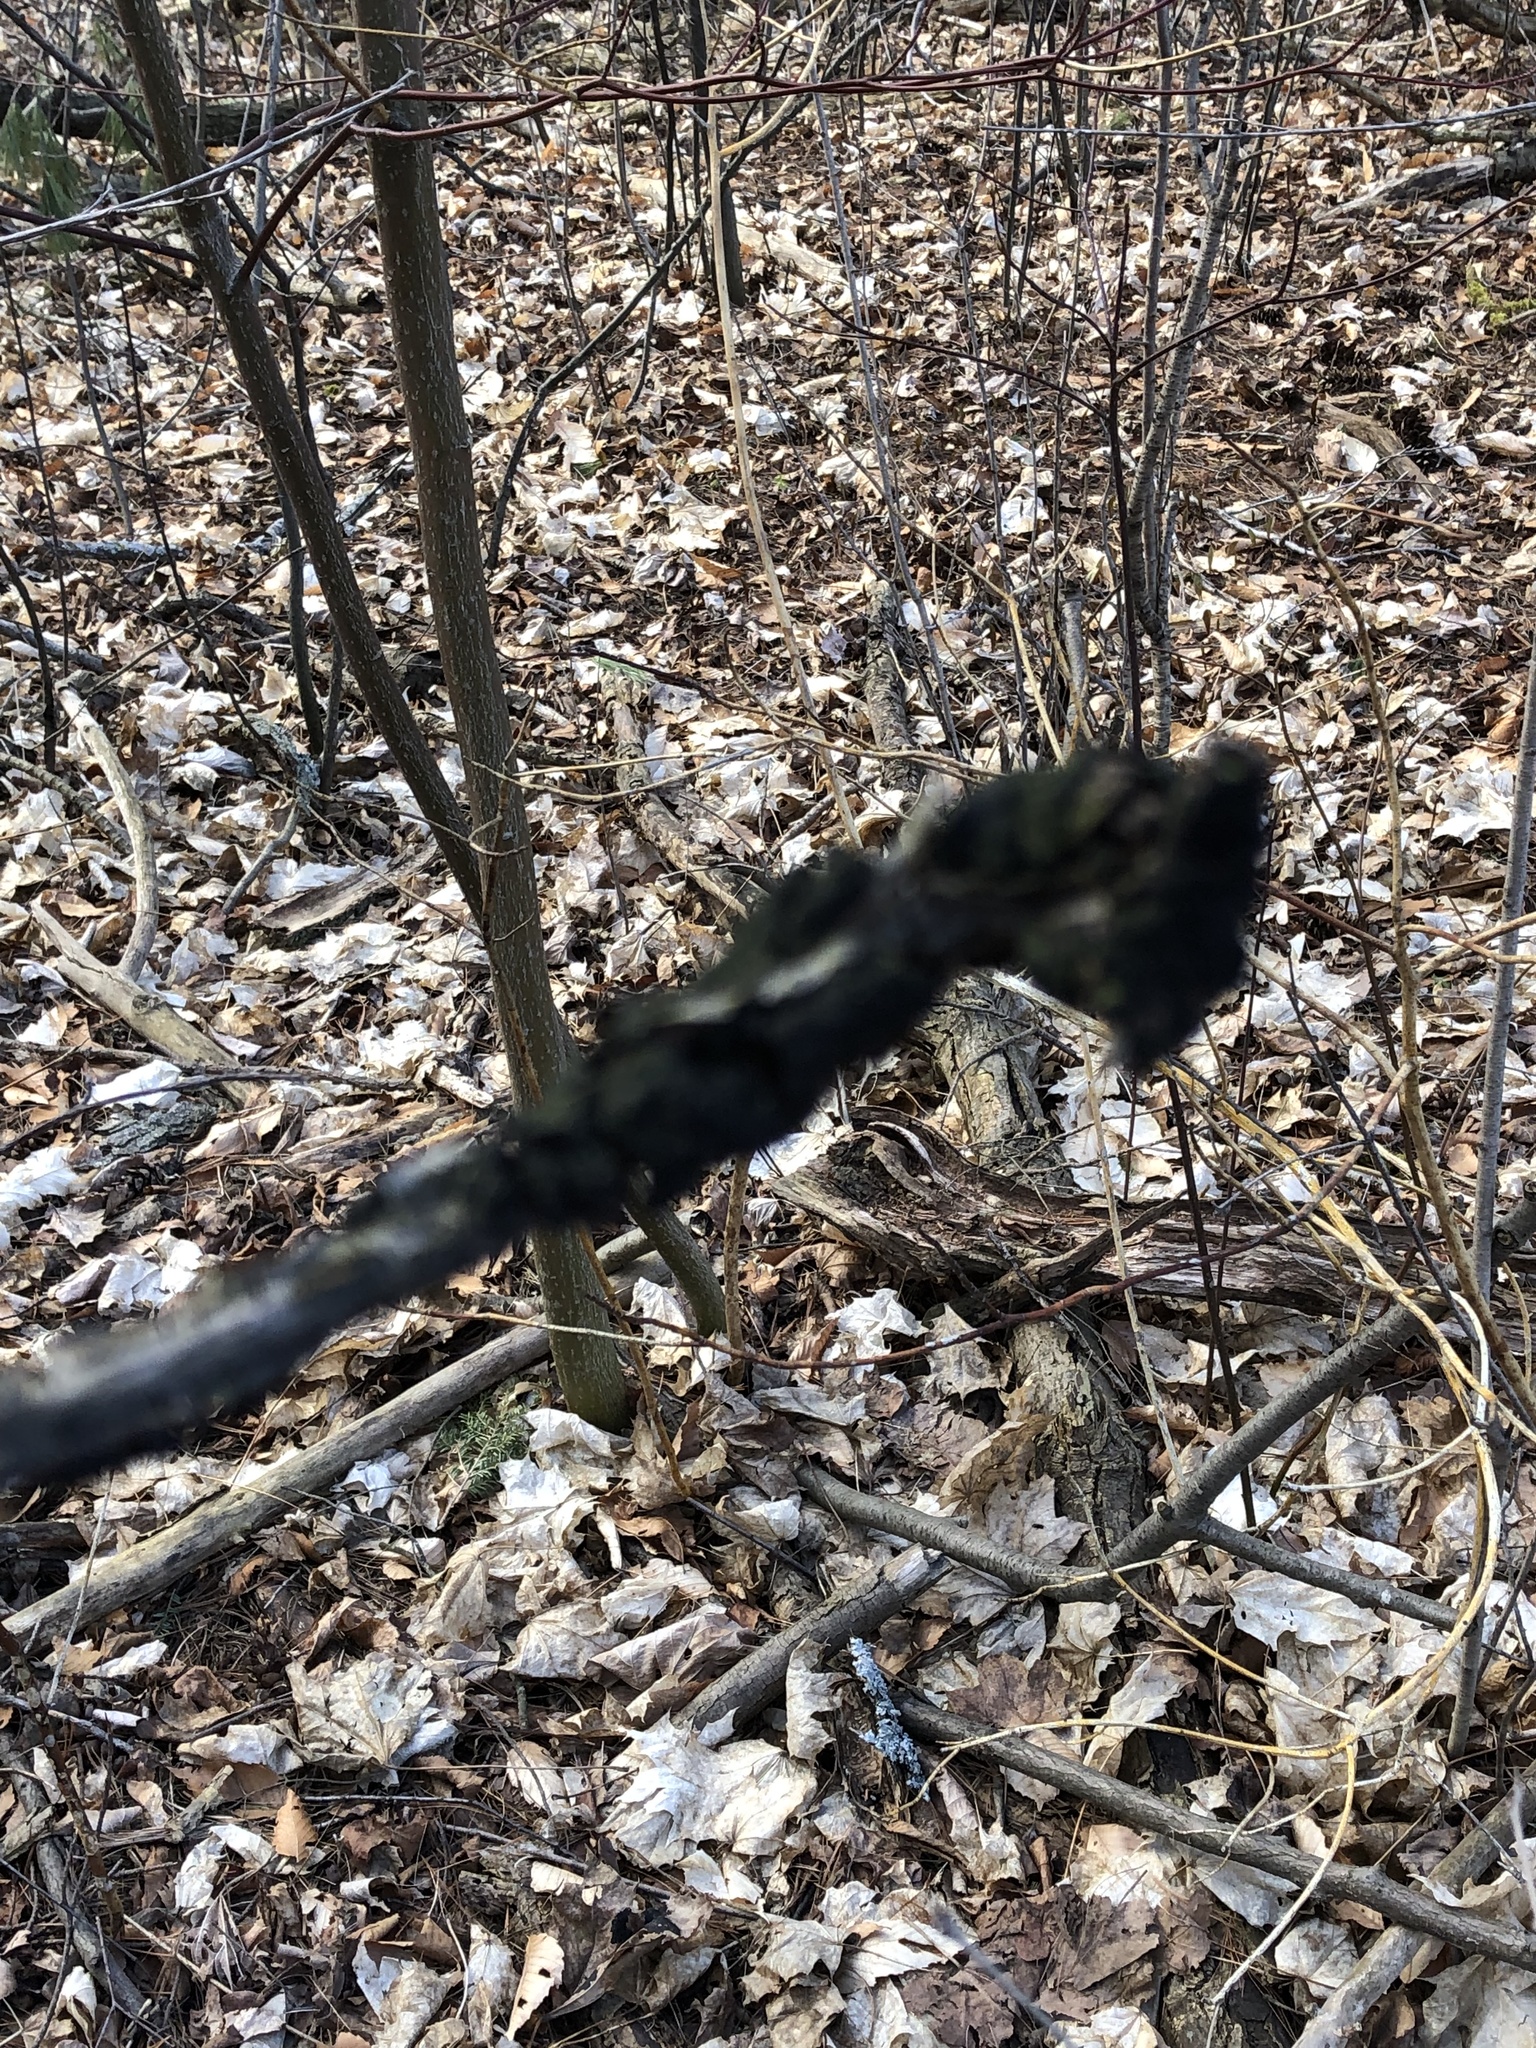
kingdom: Fungi
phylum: Ascomycota
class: Dothideomycetes
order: Venturiales
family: Venturiaceae
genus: Apiosporina
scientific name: Apiosporina morbosa
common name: Black knot
